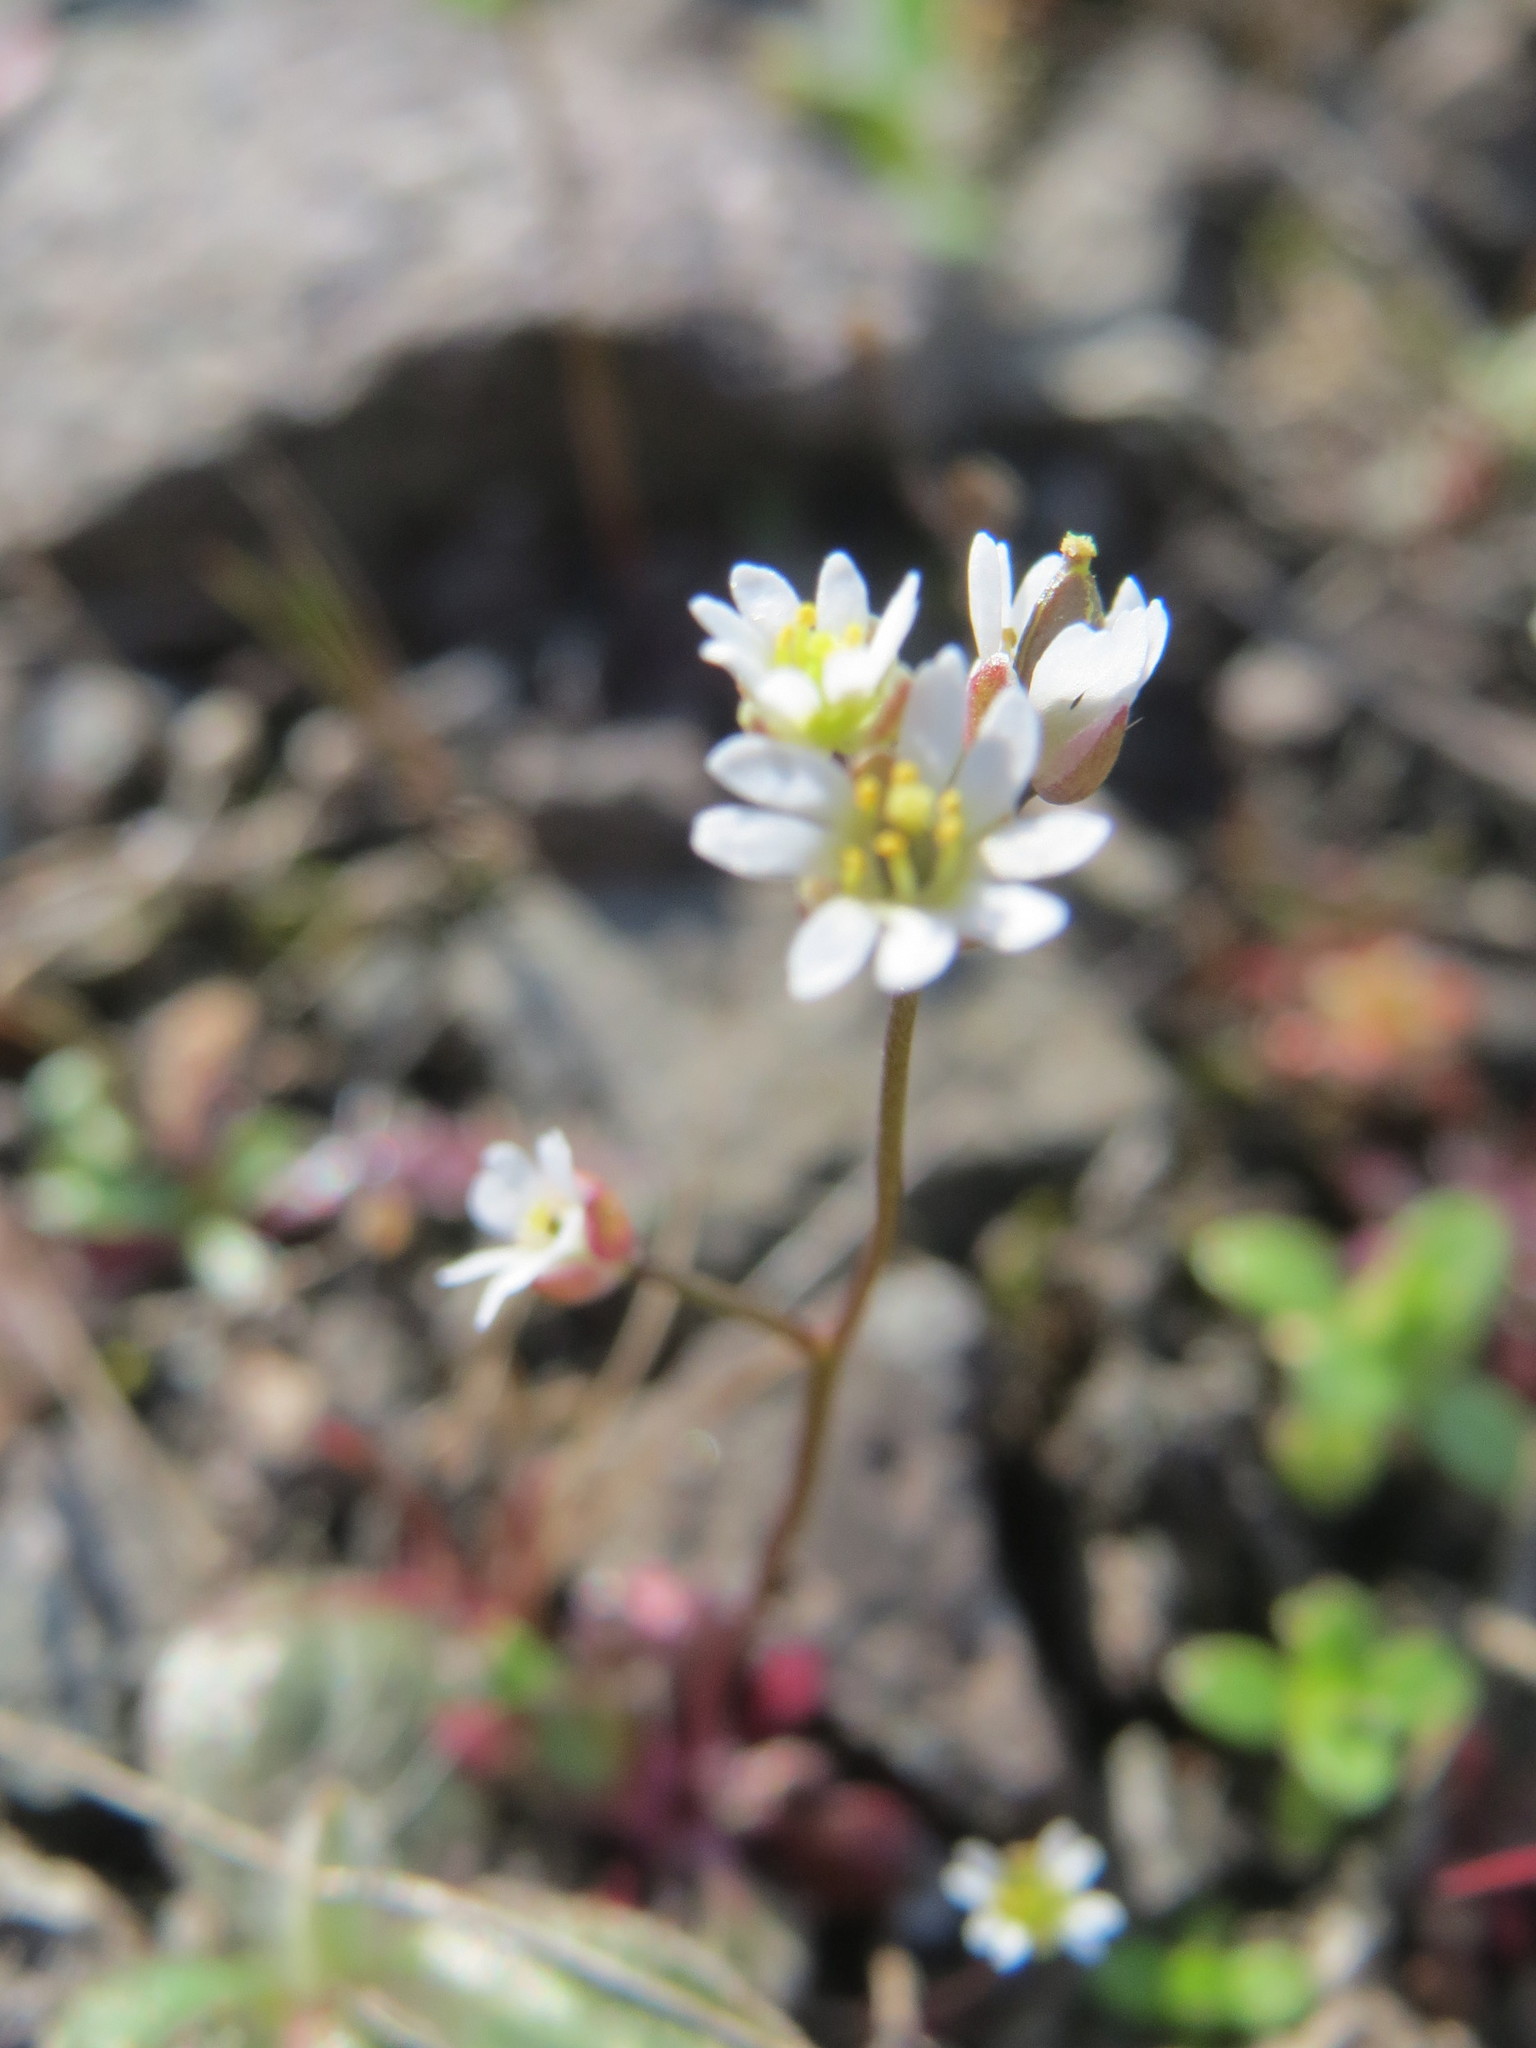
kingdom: Plantae
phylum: Tracheophyta
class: Magnoliopsida
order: Brassicales
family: Brassicaceae
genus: Draba
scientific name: Draba verna
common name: Spring draba
